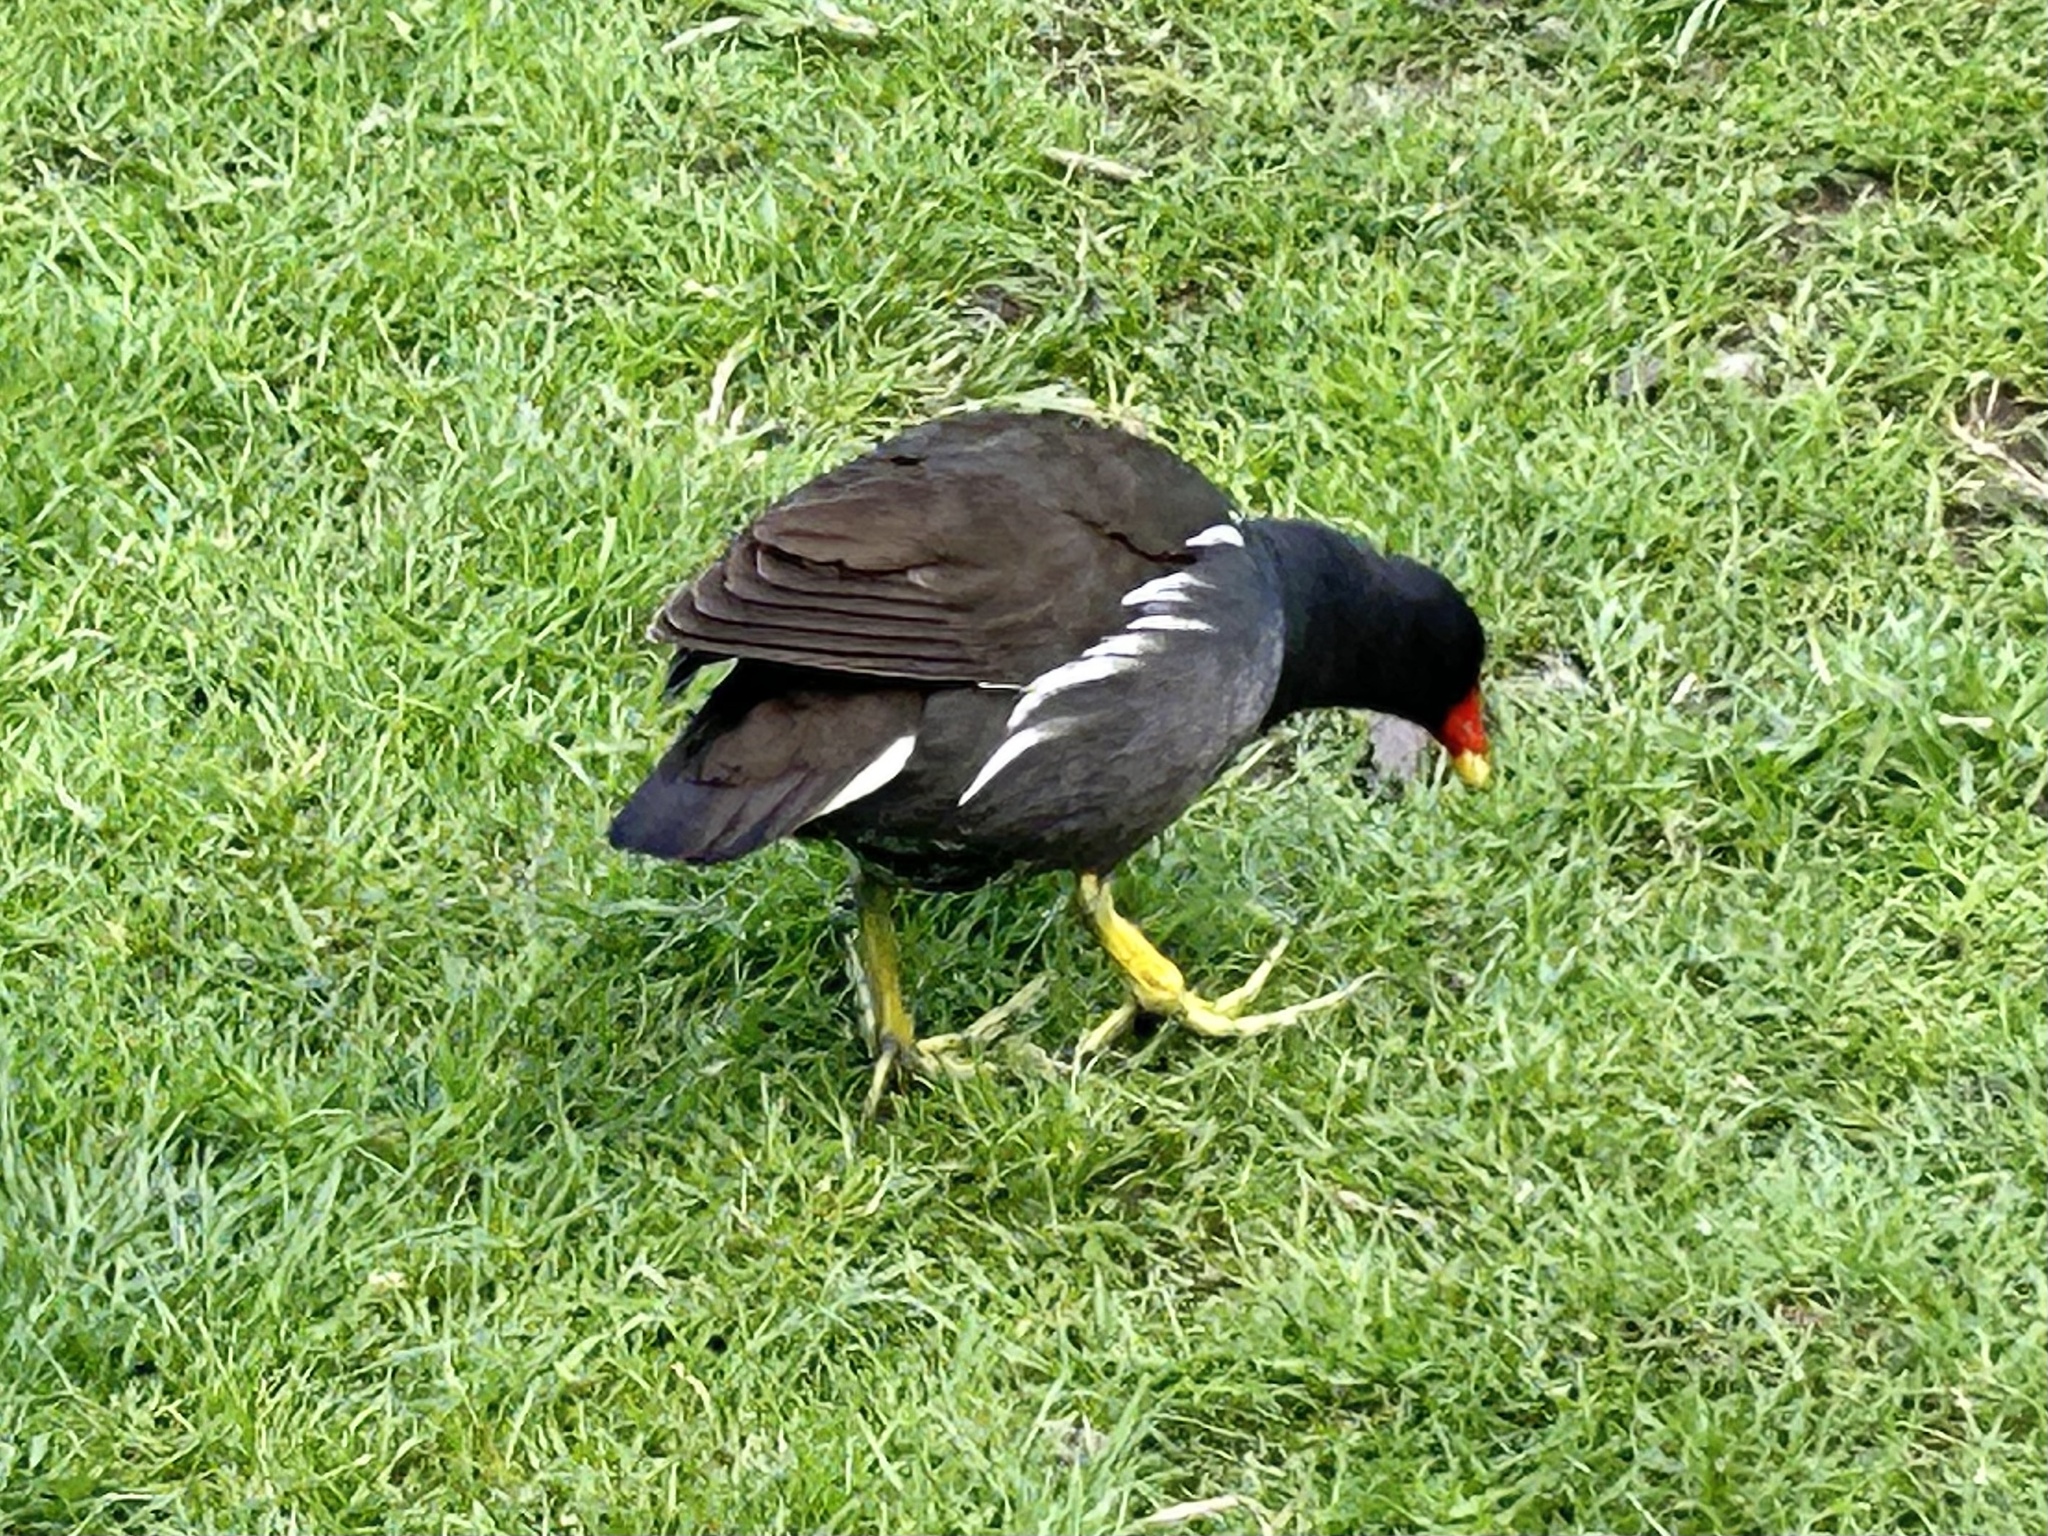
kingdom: Animalia
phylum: Chordata
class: Aves
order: Gruiformes
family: Rallidae
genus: Gallinula
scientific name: Gallinula chloropus
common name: Common moorhen
